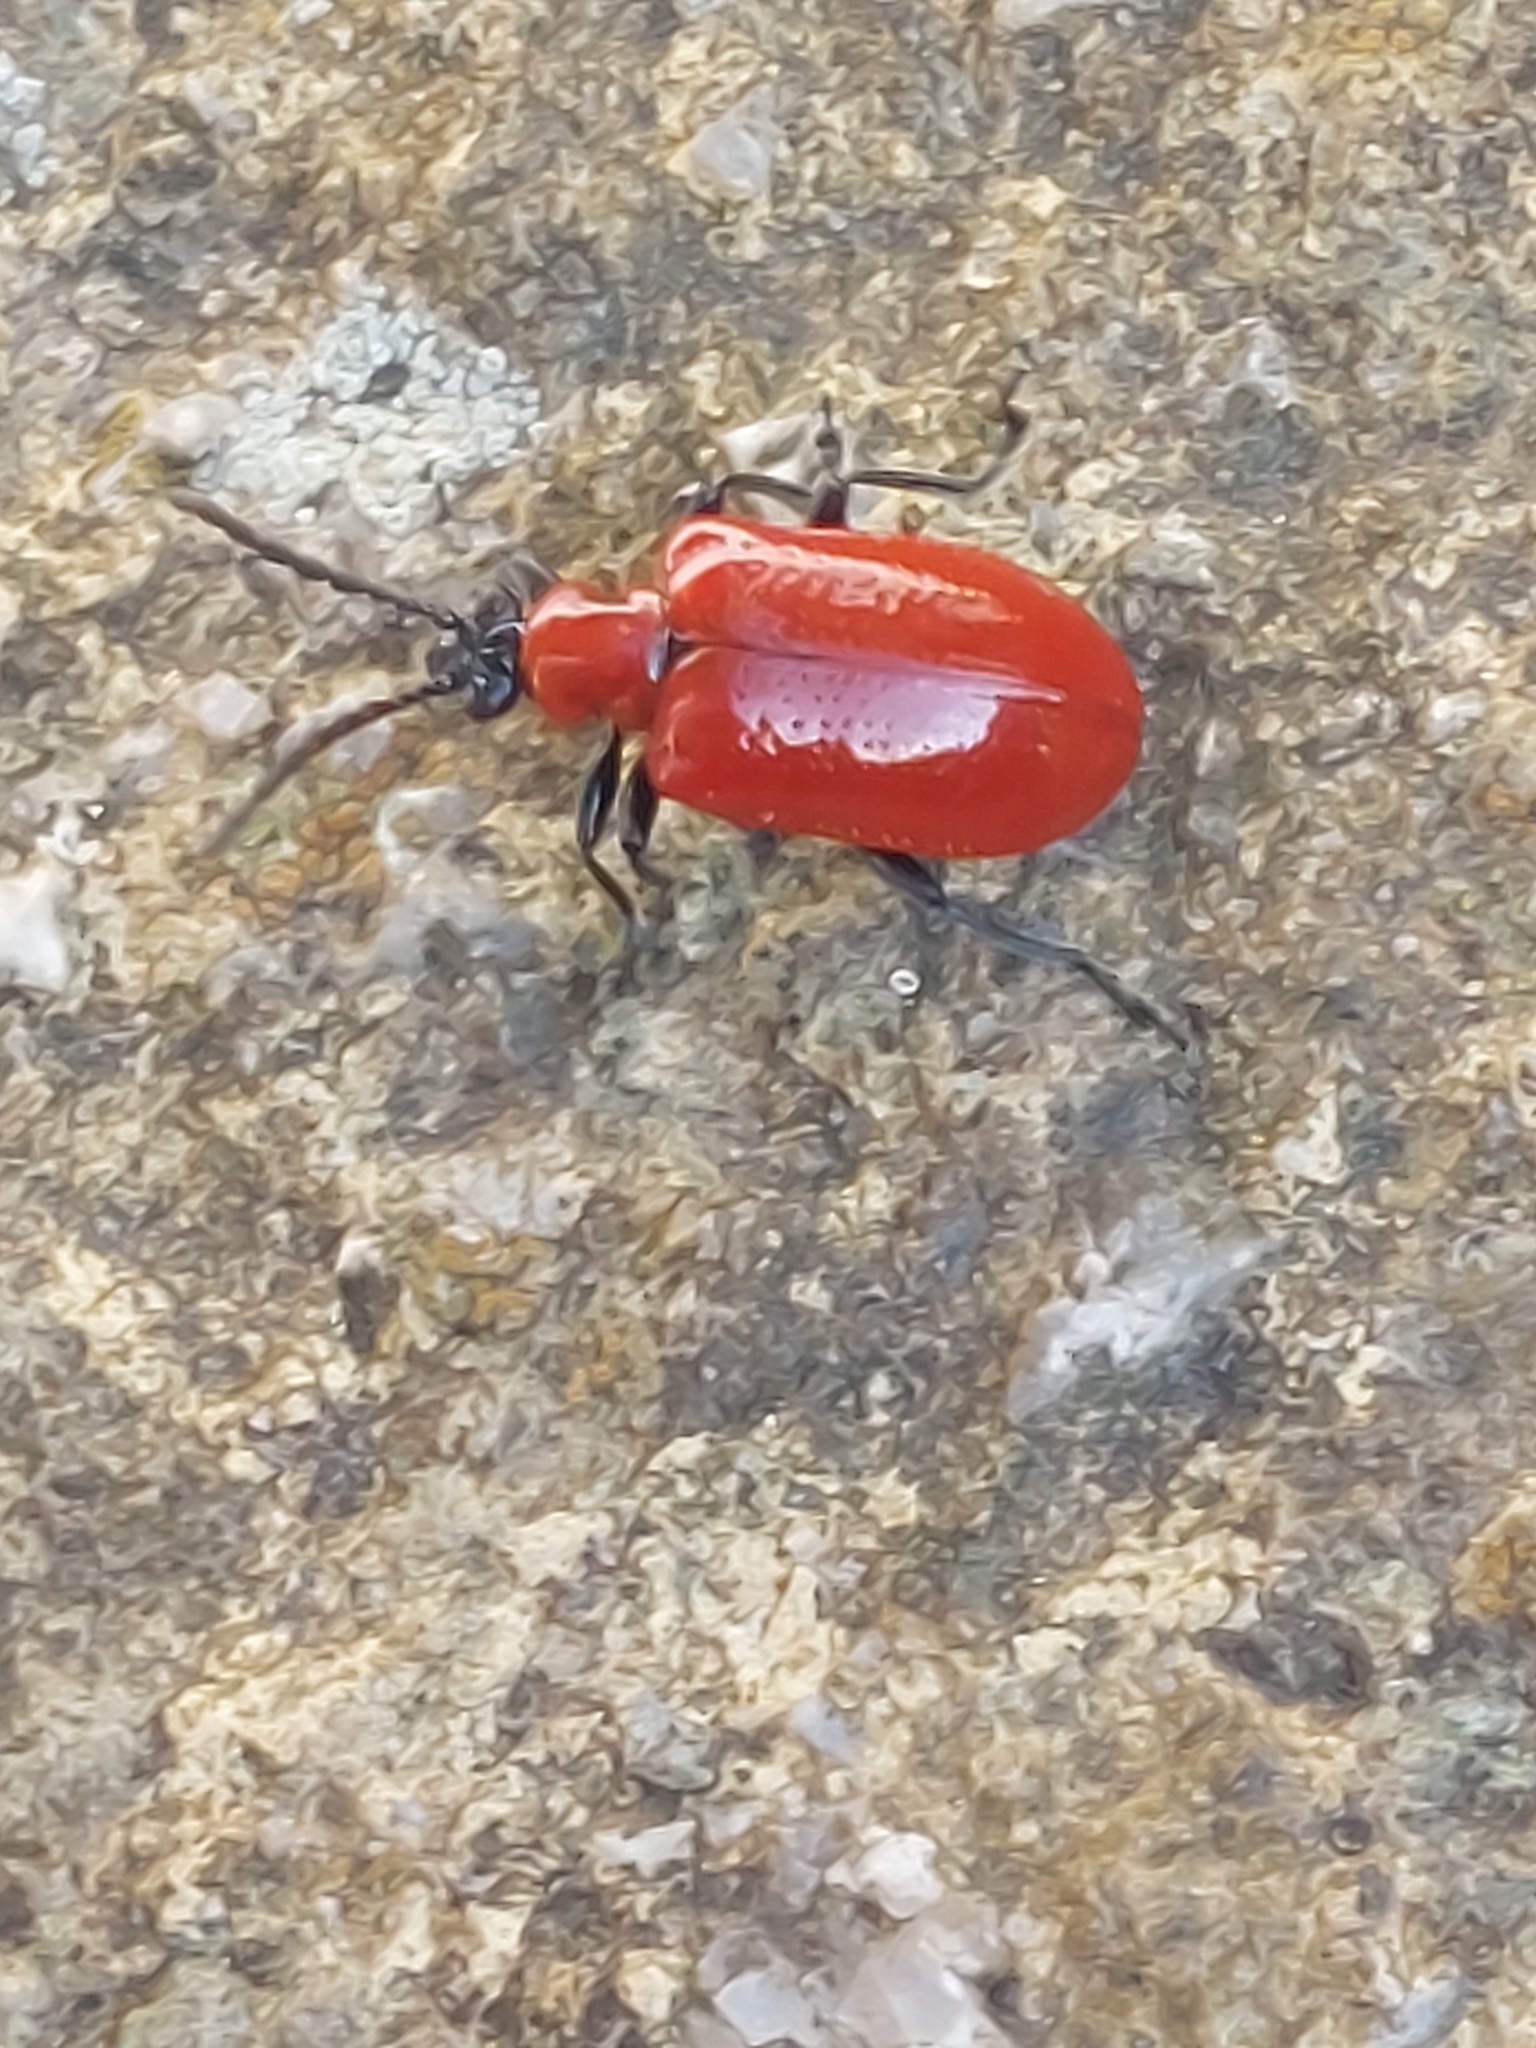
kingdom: Animalia
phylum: Arthropoda
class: Insecta
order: Coleoptera
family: Chrysomelidae
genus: Lilioceris
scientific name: Lilioceris lilii
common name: Lily beetle
